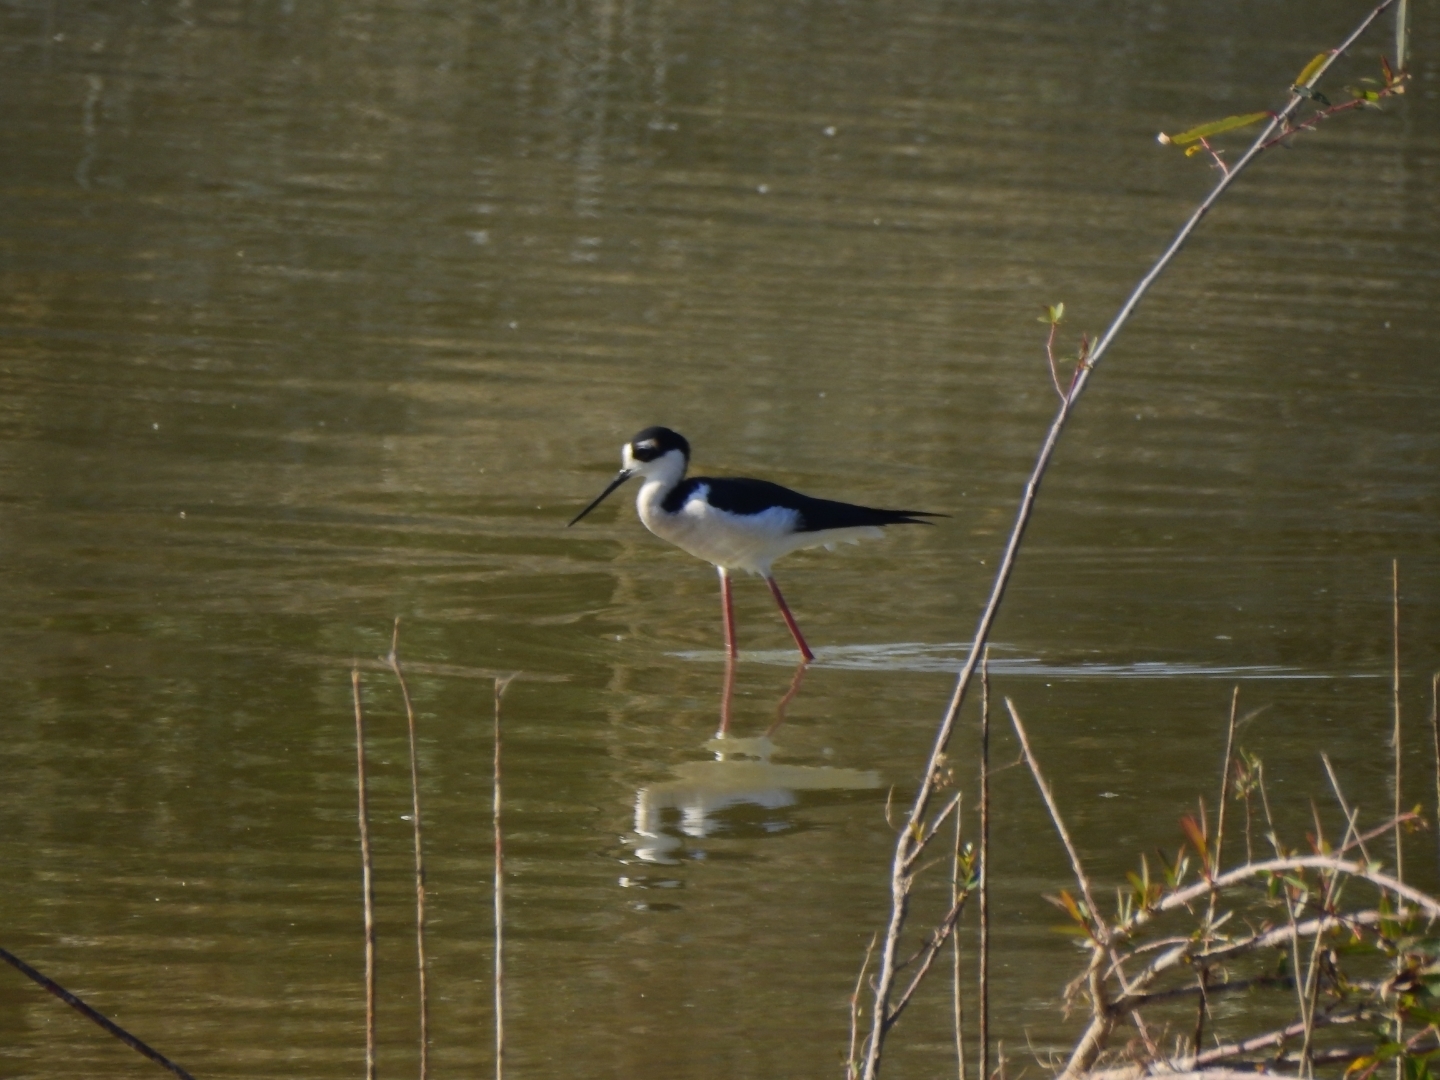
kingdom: Animalia
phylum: Chordata
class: Aves
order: Charadriiformes
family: Recurvirostridae
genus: Himantopus
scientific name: Himantopus mexicanus
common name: Black-necked stilt
